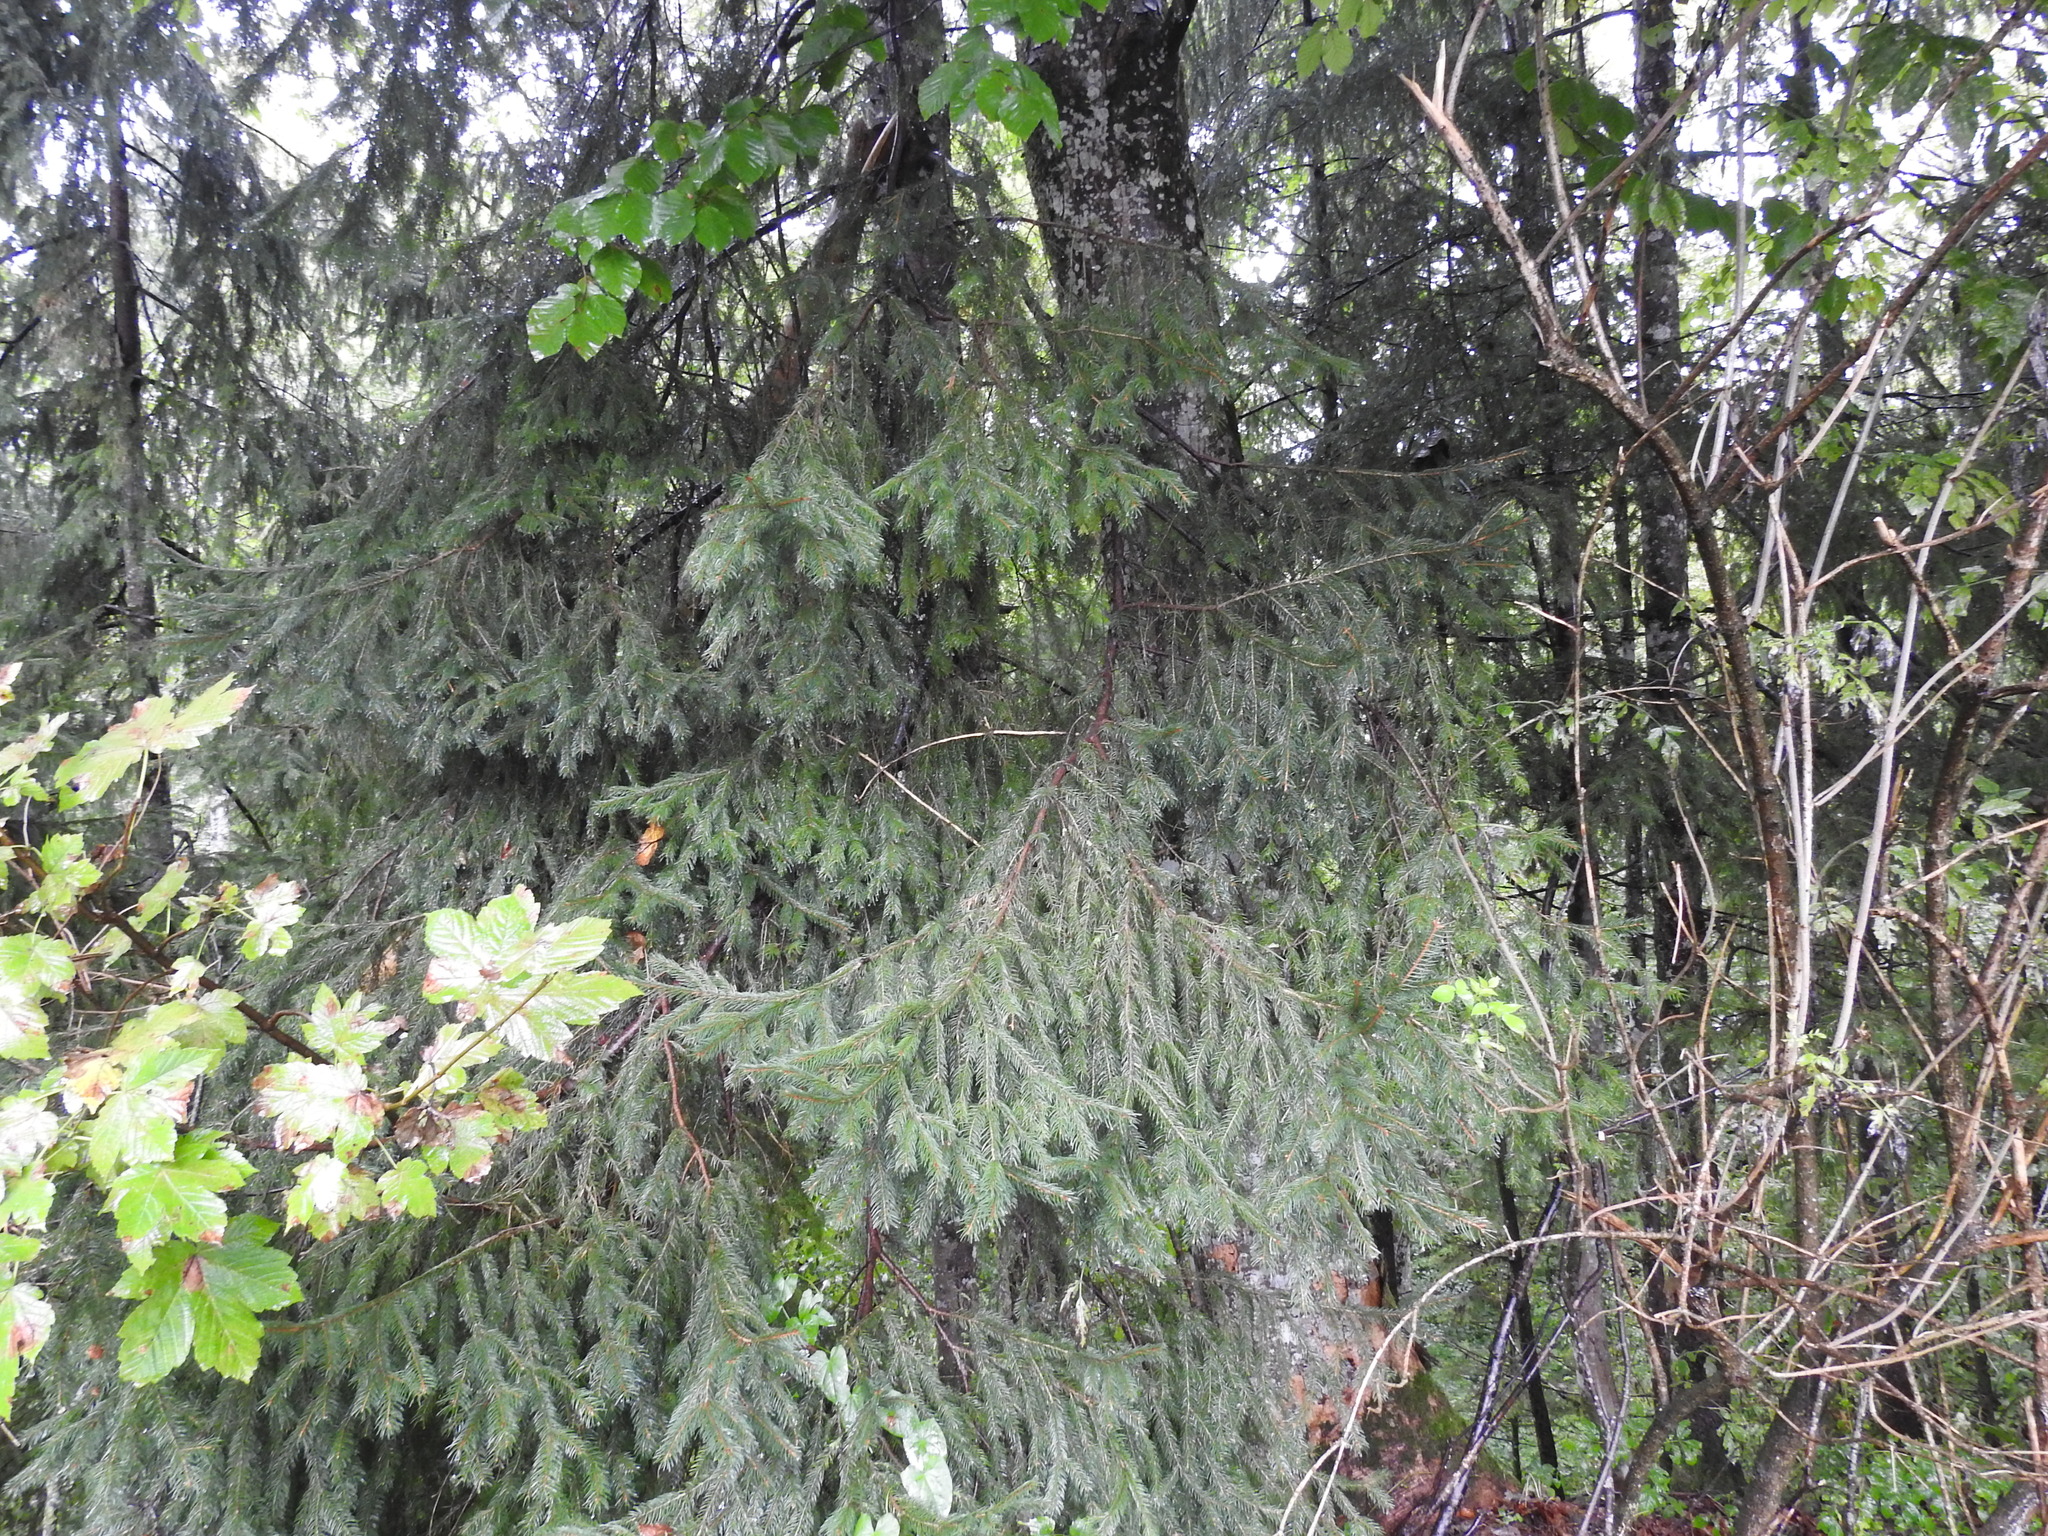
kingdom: Plantae
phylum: Tracheophyta
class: Pinopsida
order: Pinales
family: Pinaceae
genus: Picea
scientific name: Picea abies
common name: Norway spruce
